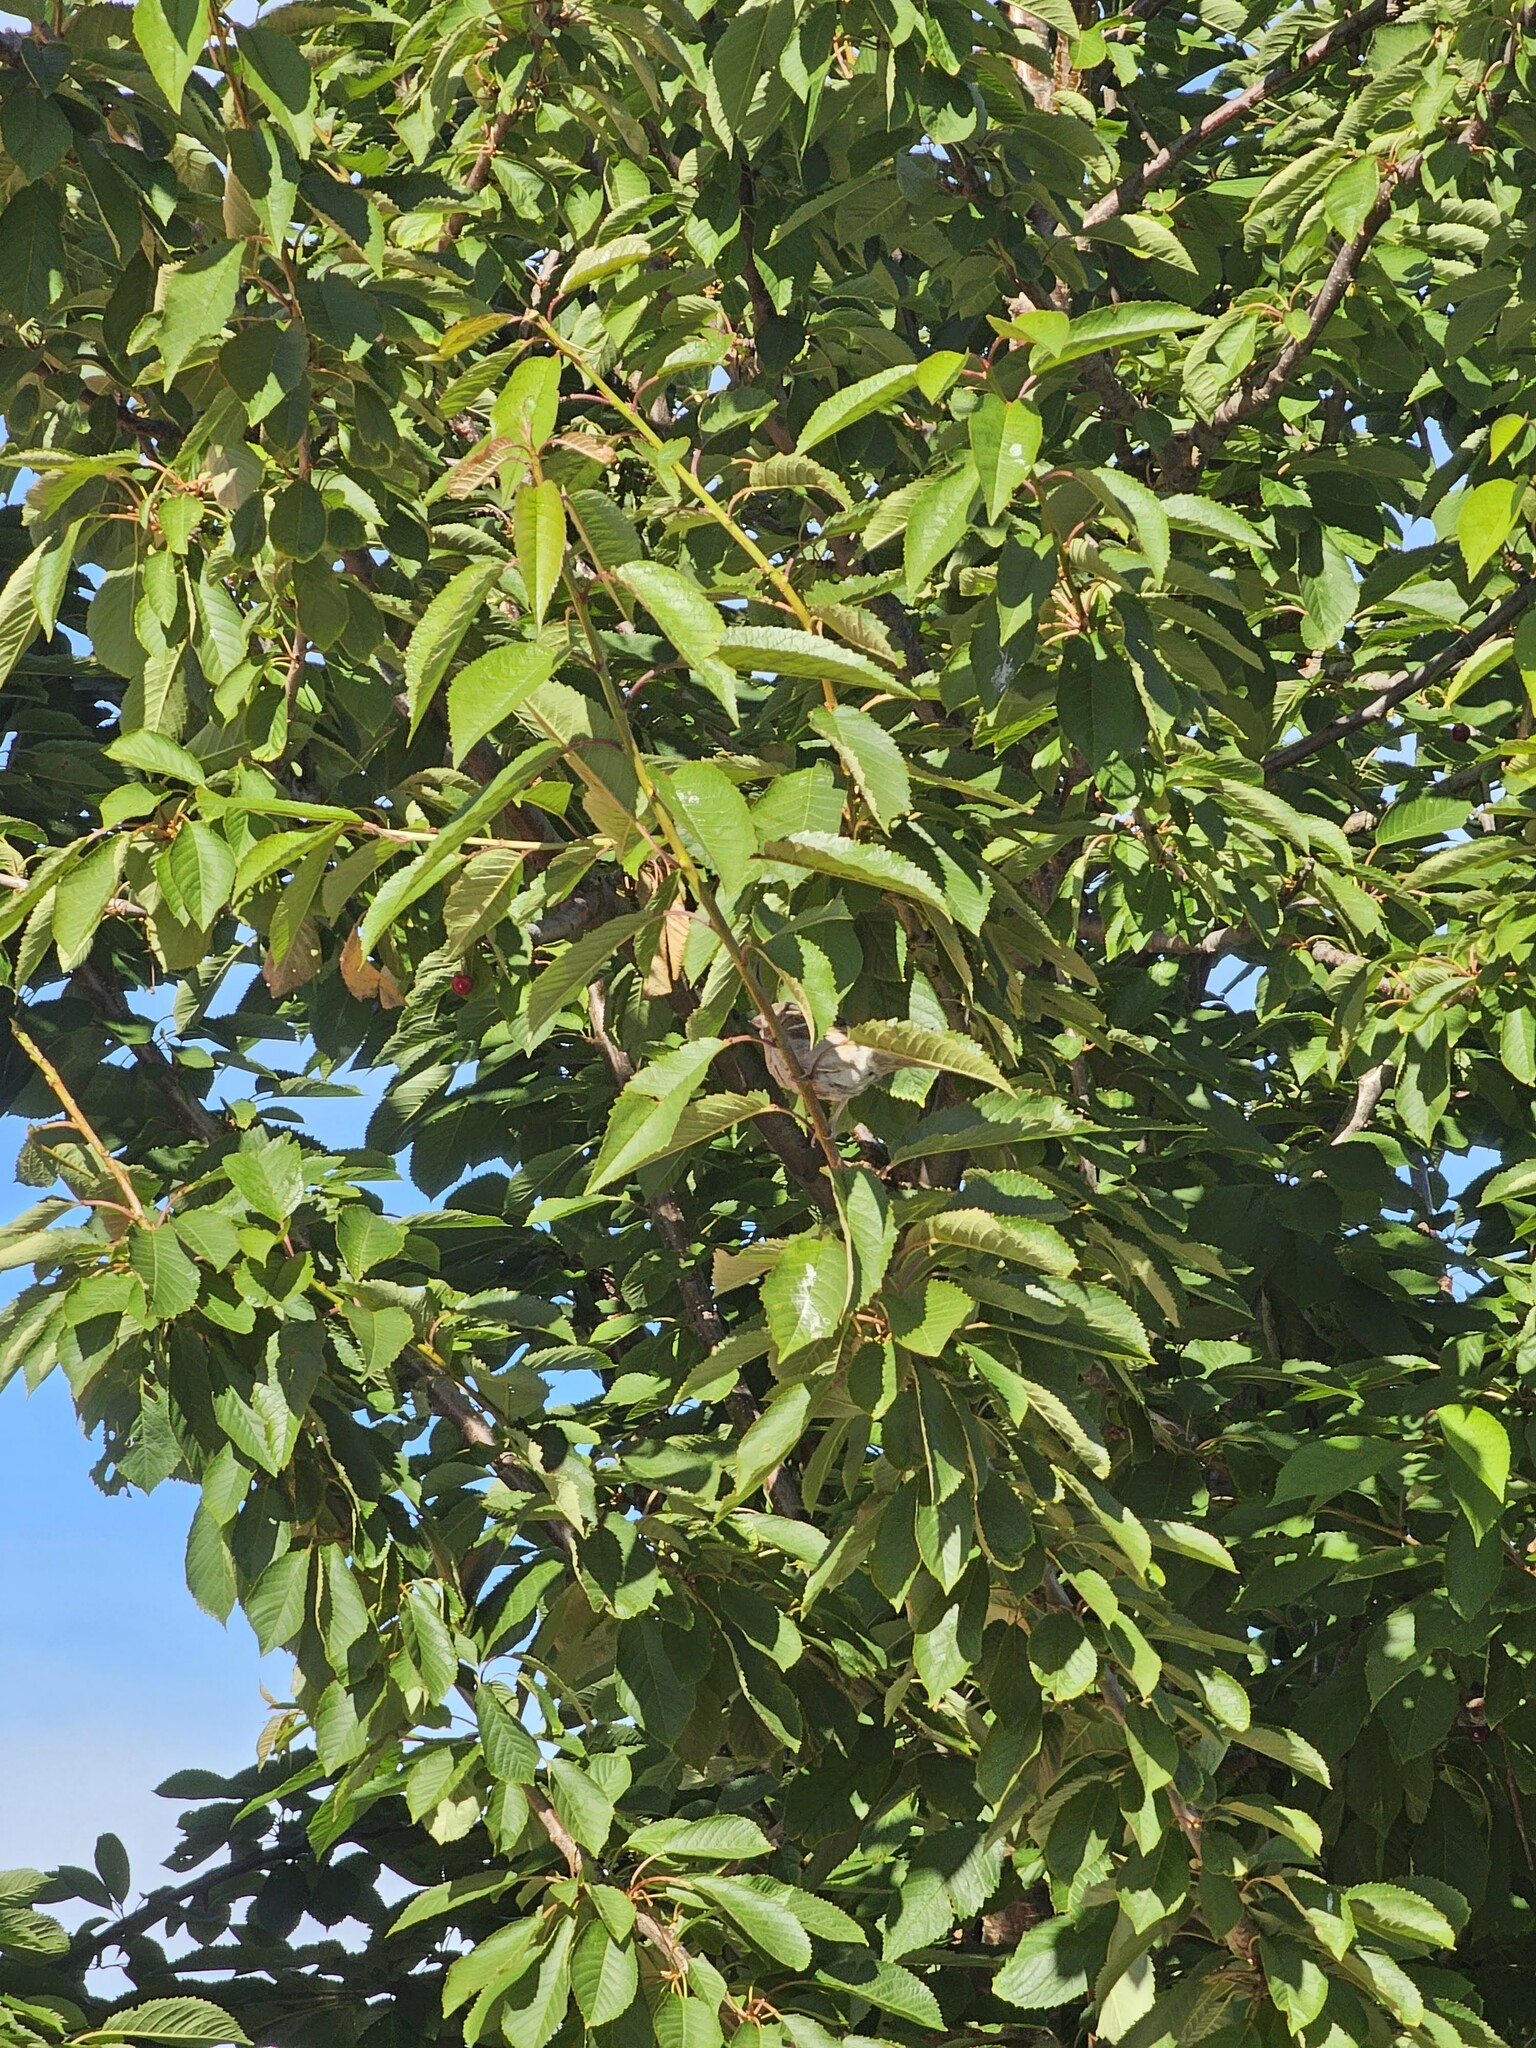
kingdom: Animalia
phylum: Chordata
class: Aves
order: Passeriformes
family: Passeridae
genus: Passer
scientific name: Passer domesticus
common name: House sparrow
